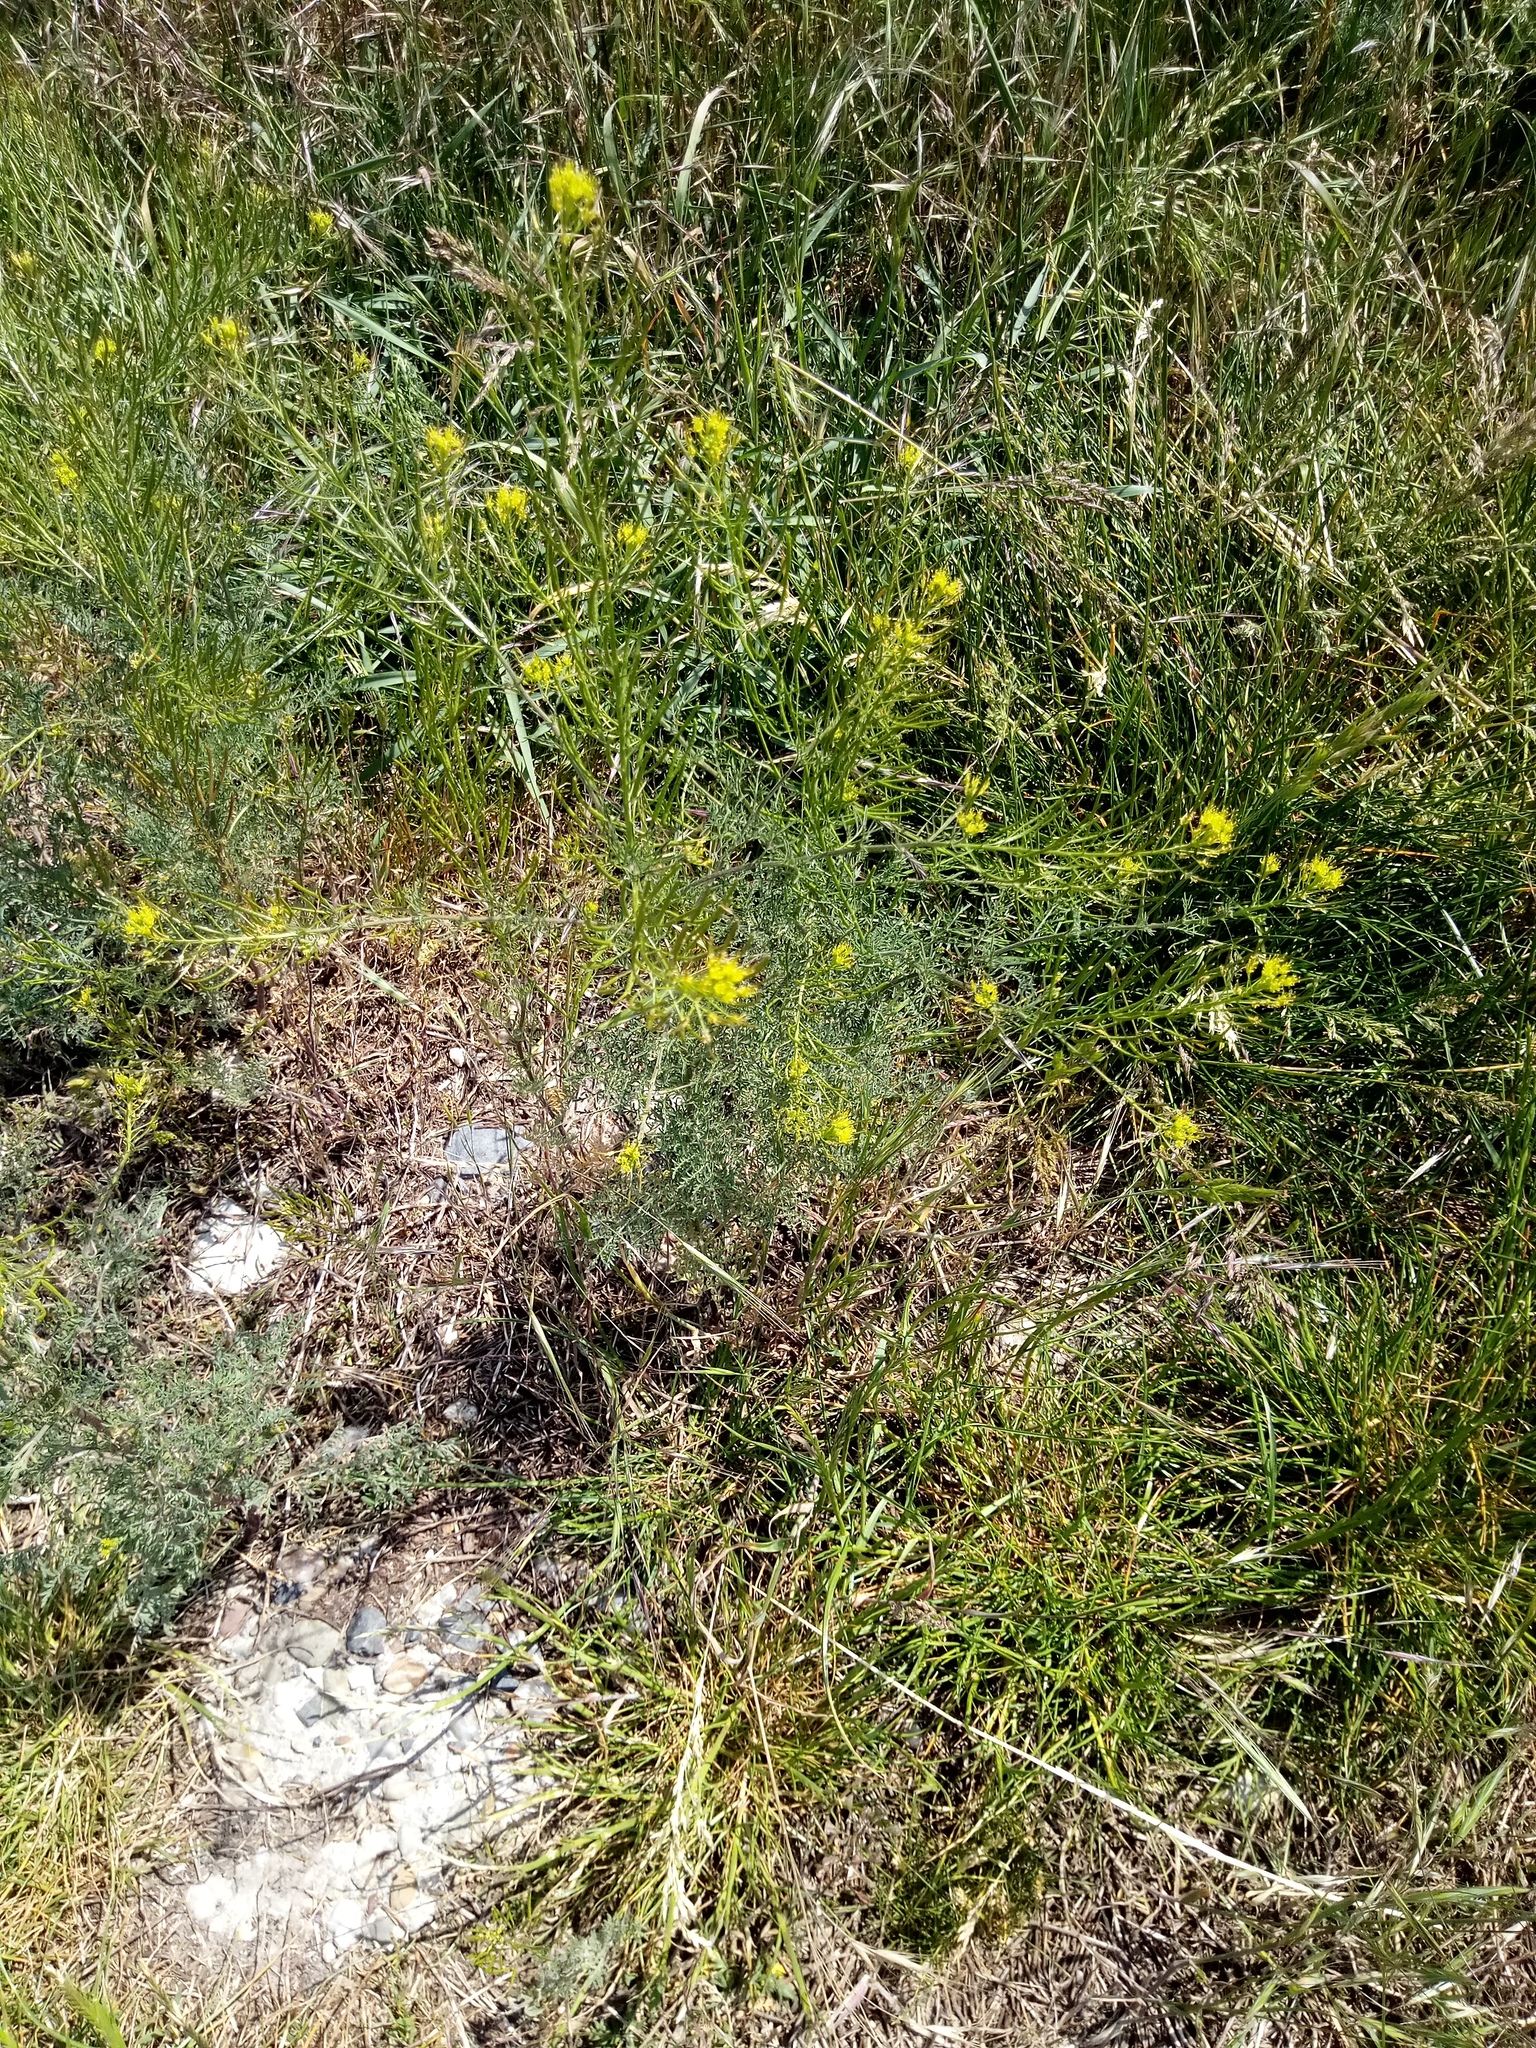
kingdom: Plantae
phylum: Tracheophyta
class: Magnoliopsida
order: Brassicales
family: Brassicaceae
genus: Descurainia
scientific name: Descurainia sophia
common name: Flixweed
